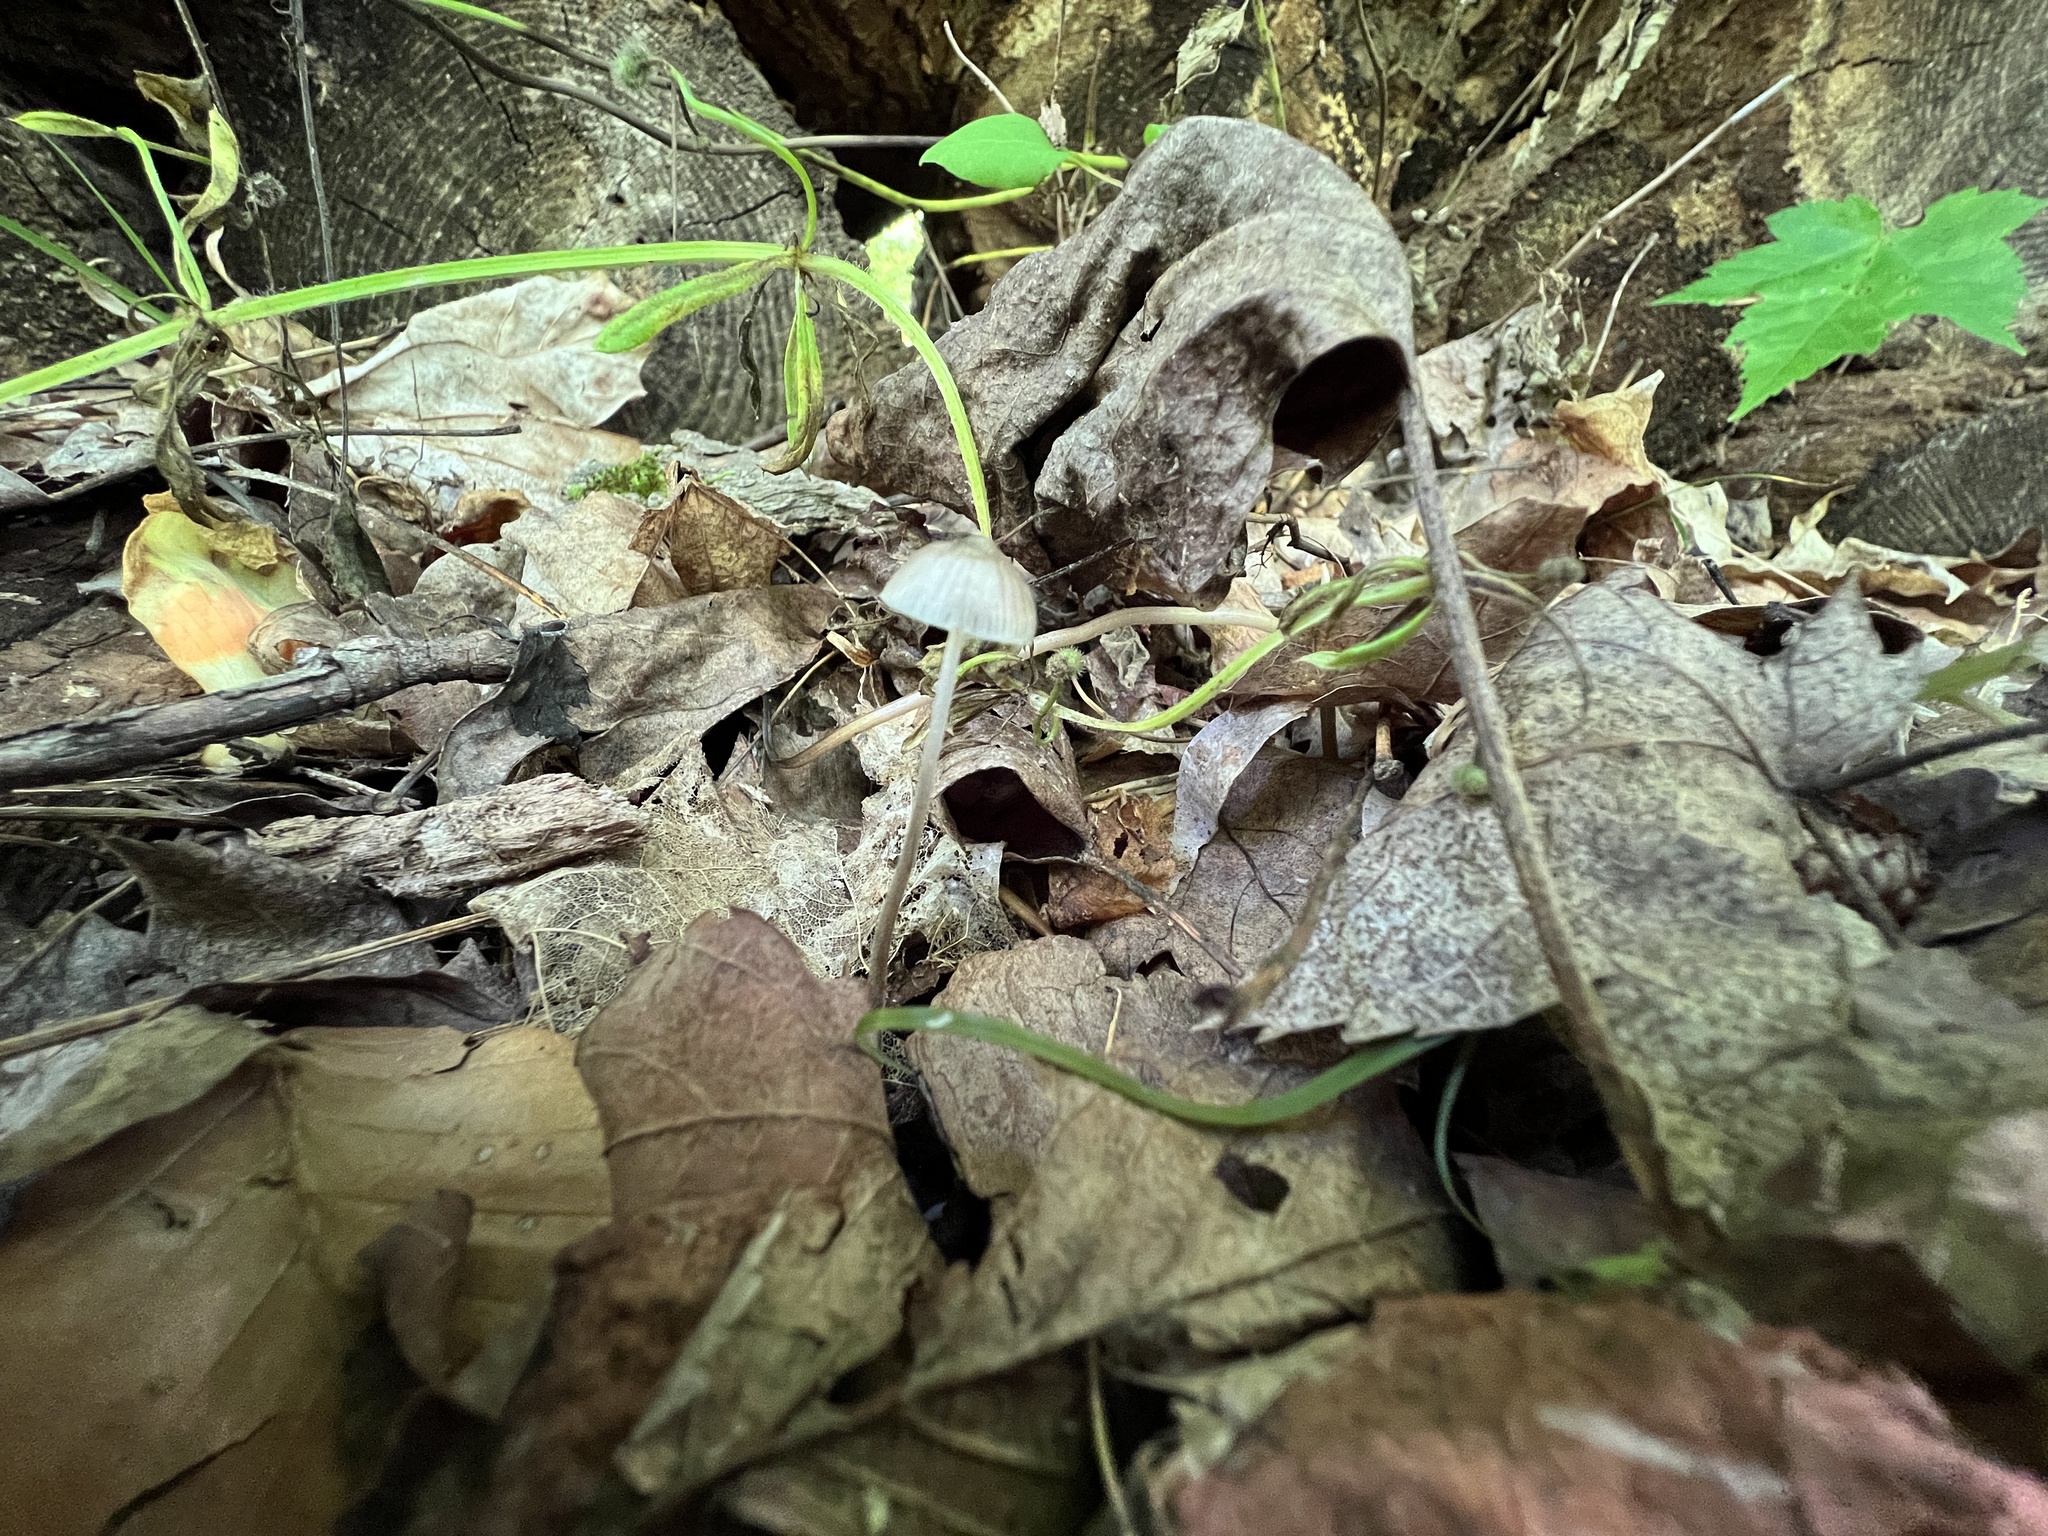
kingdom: Fungi
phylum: Basidiomycota
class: Agaricomycetes
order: Agaricales
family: Mycenaceae
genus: Mycena
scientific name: Mycena subcaerulea
